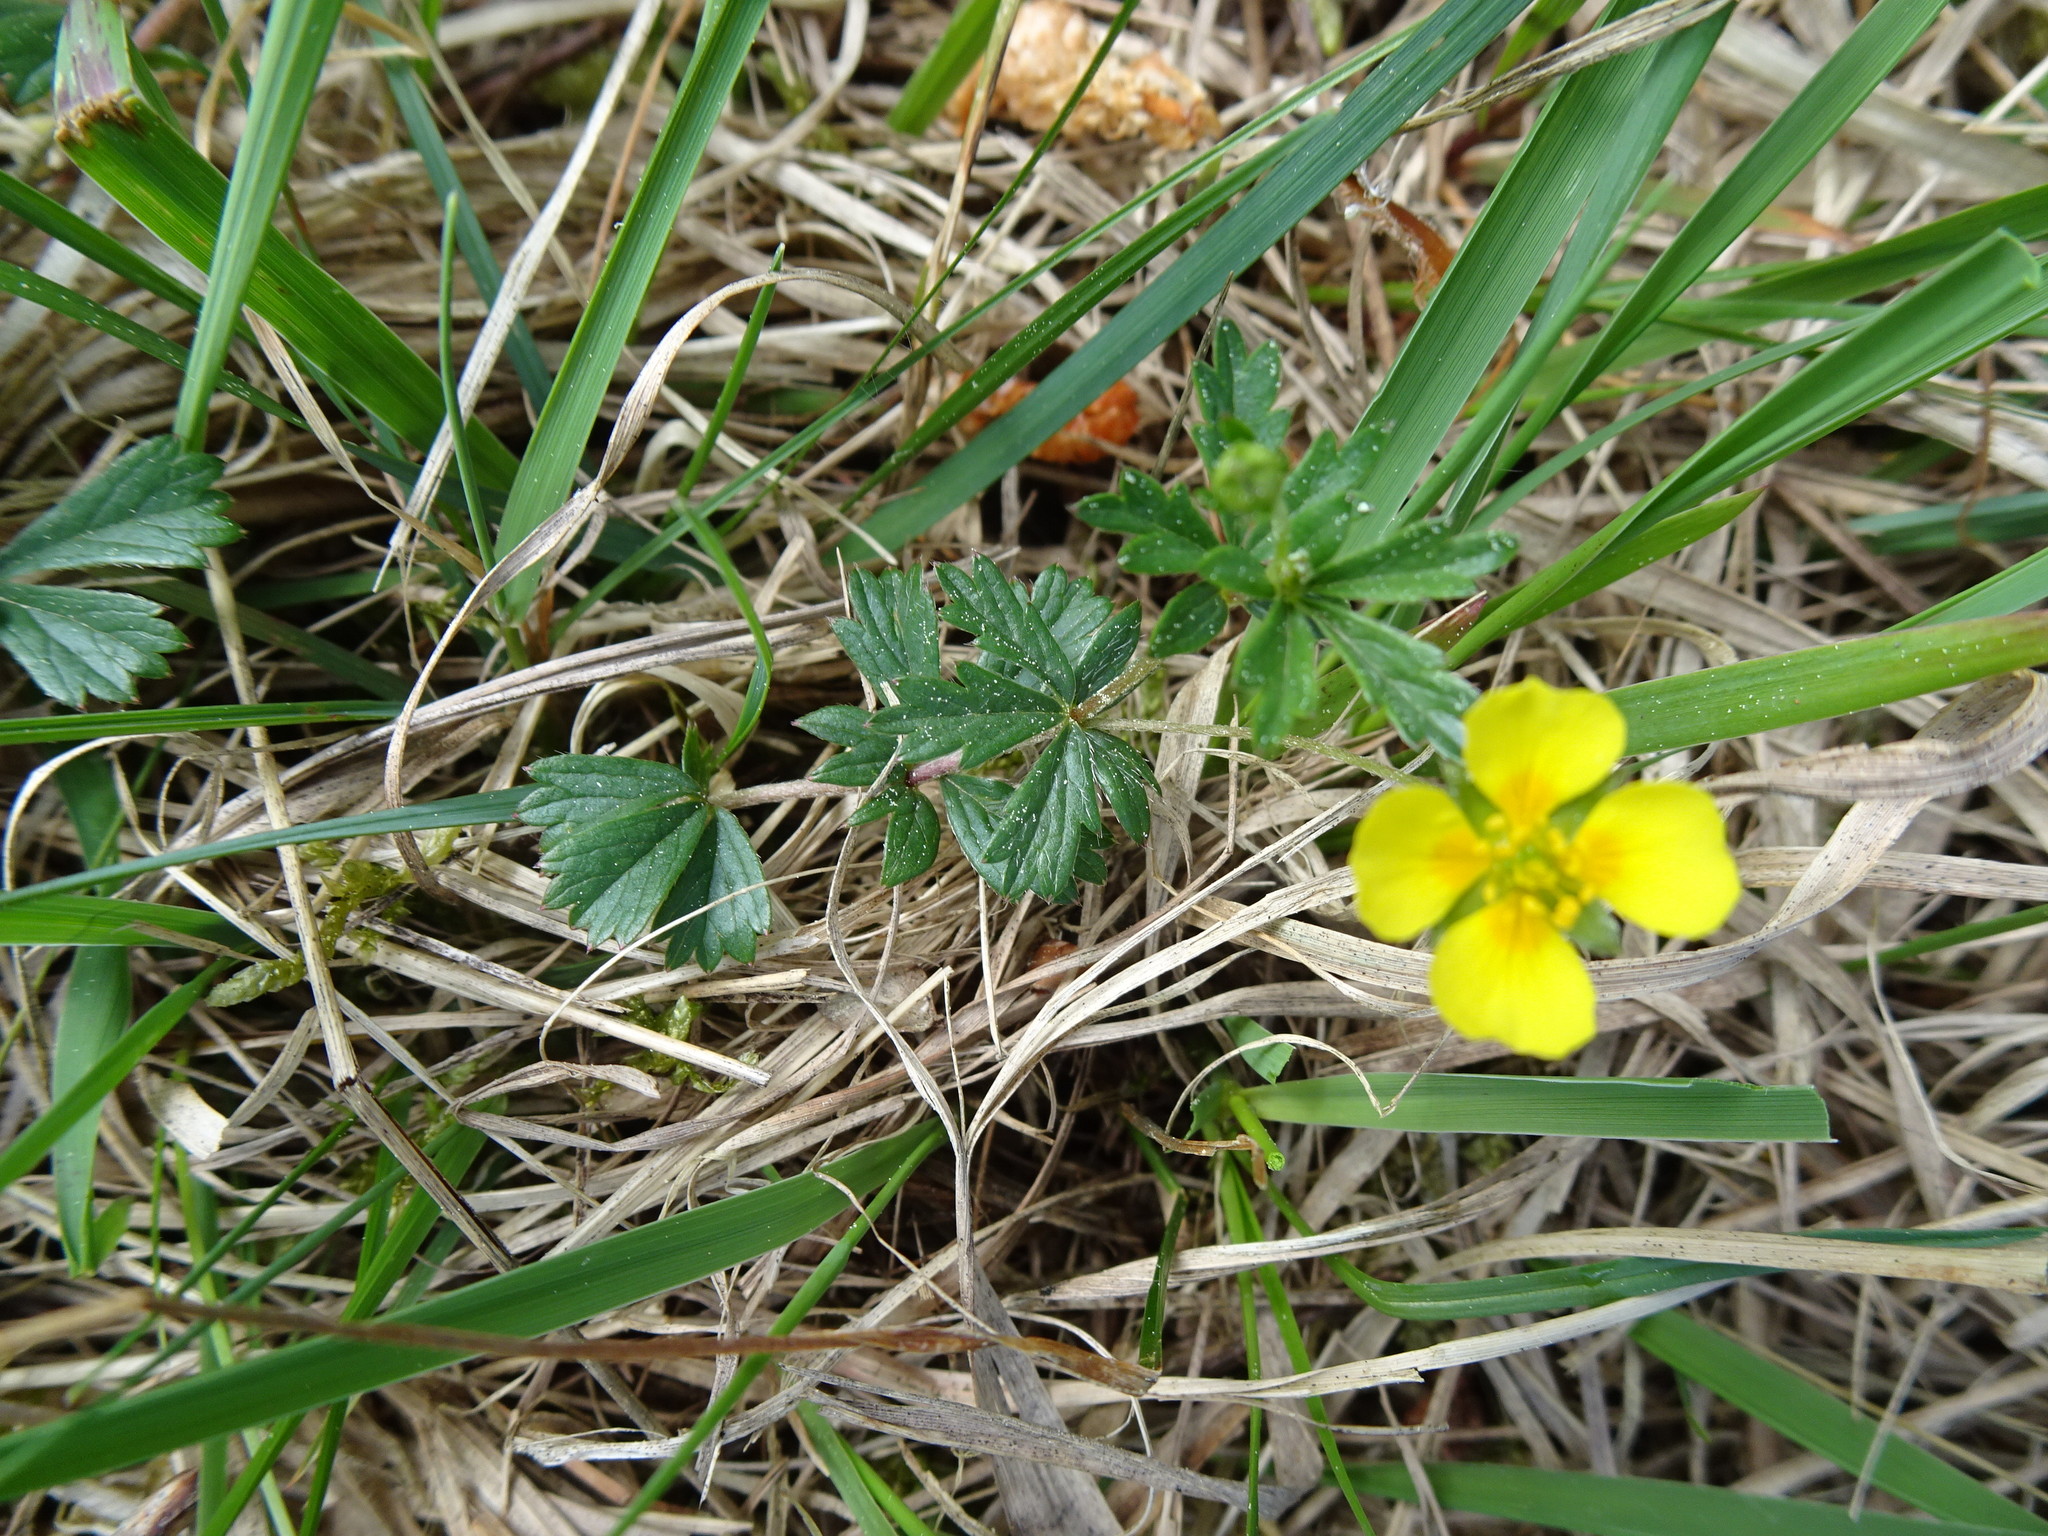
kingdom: Plantae
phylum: Tracheophyta
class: Magnoliopsida
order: Rosales
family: Rosaceae
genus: Potentilla
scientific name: Potentilla erecta
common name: Tormentil
